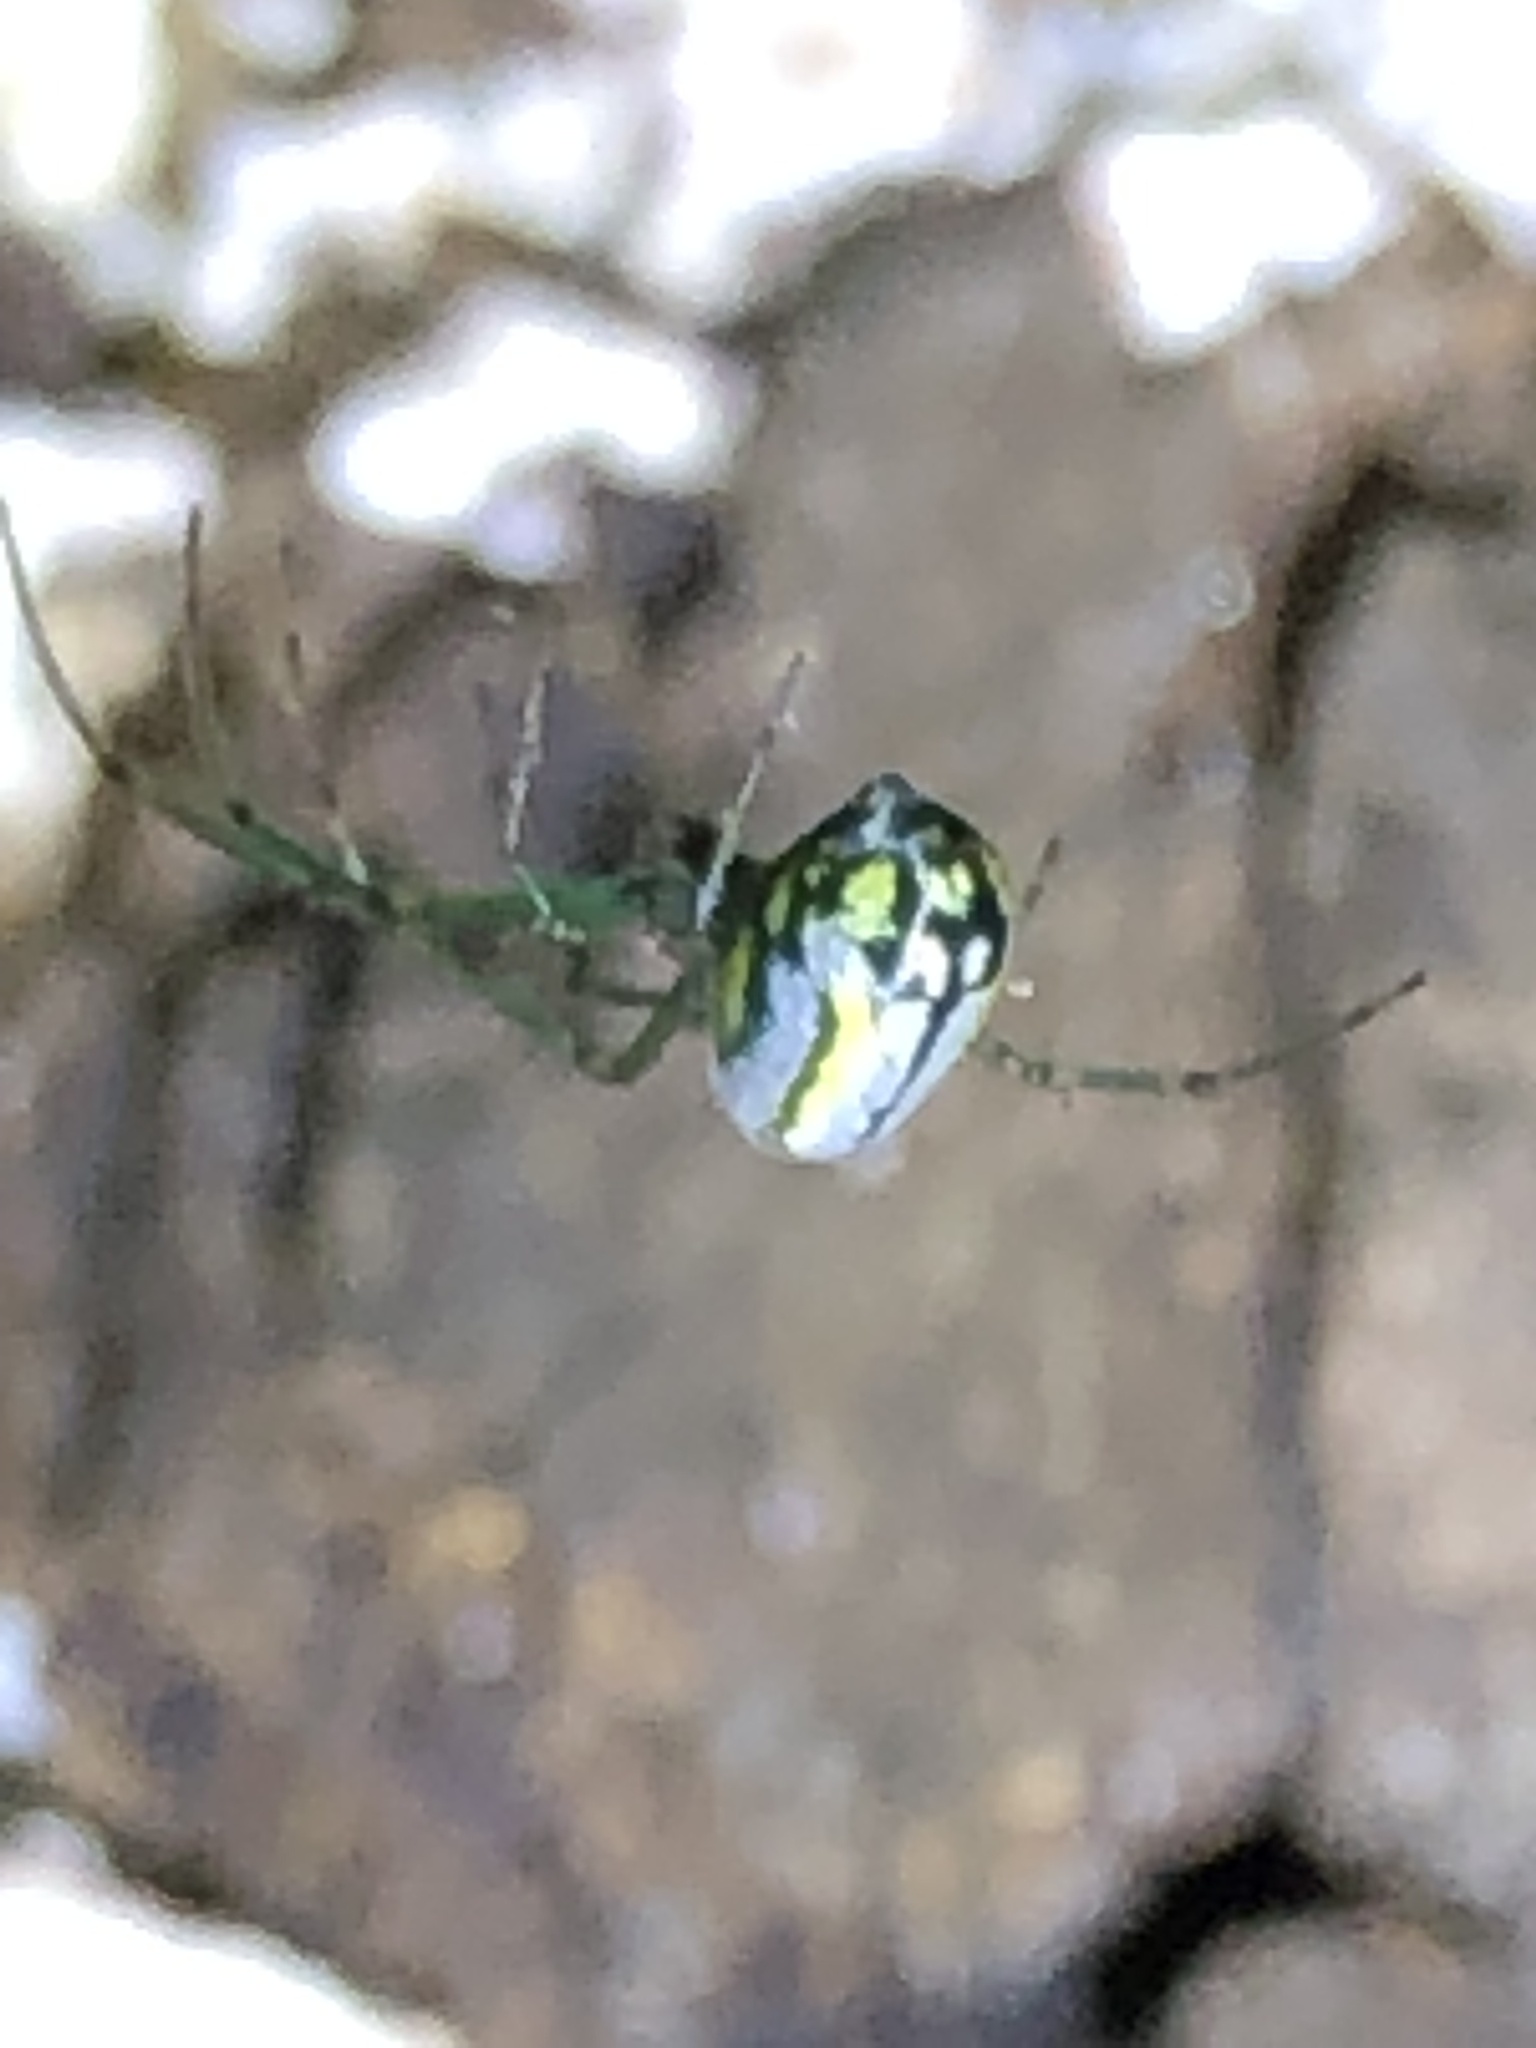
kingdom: Animalia
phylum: Arthropoda
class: Arachnida
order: Araneae
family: Tetragnathidae
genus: Leucauge
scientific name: Leucauge venusta
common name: Longjawed orb weavers
